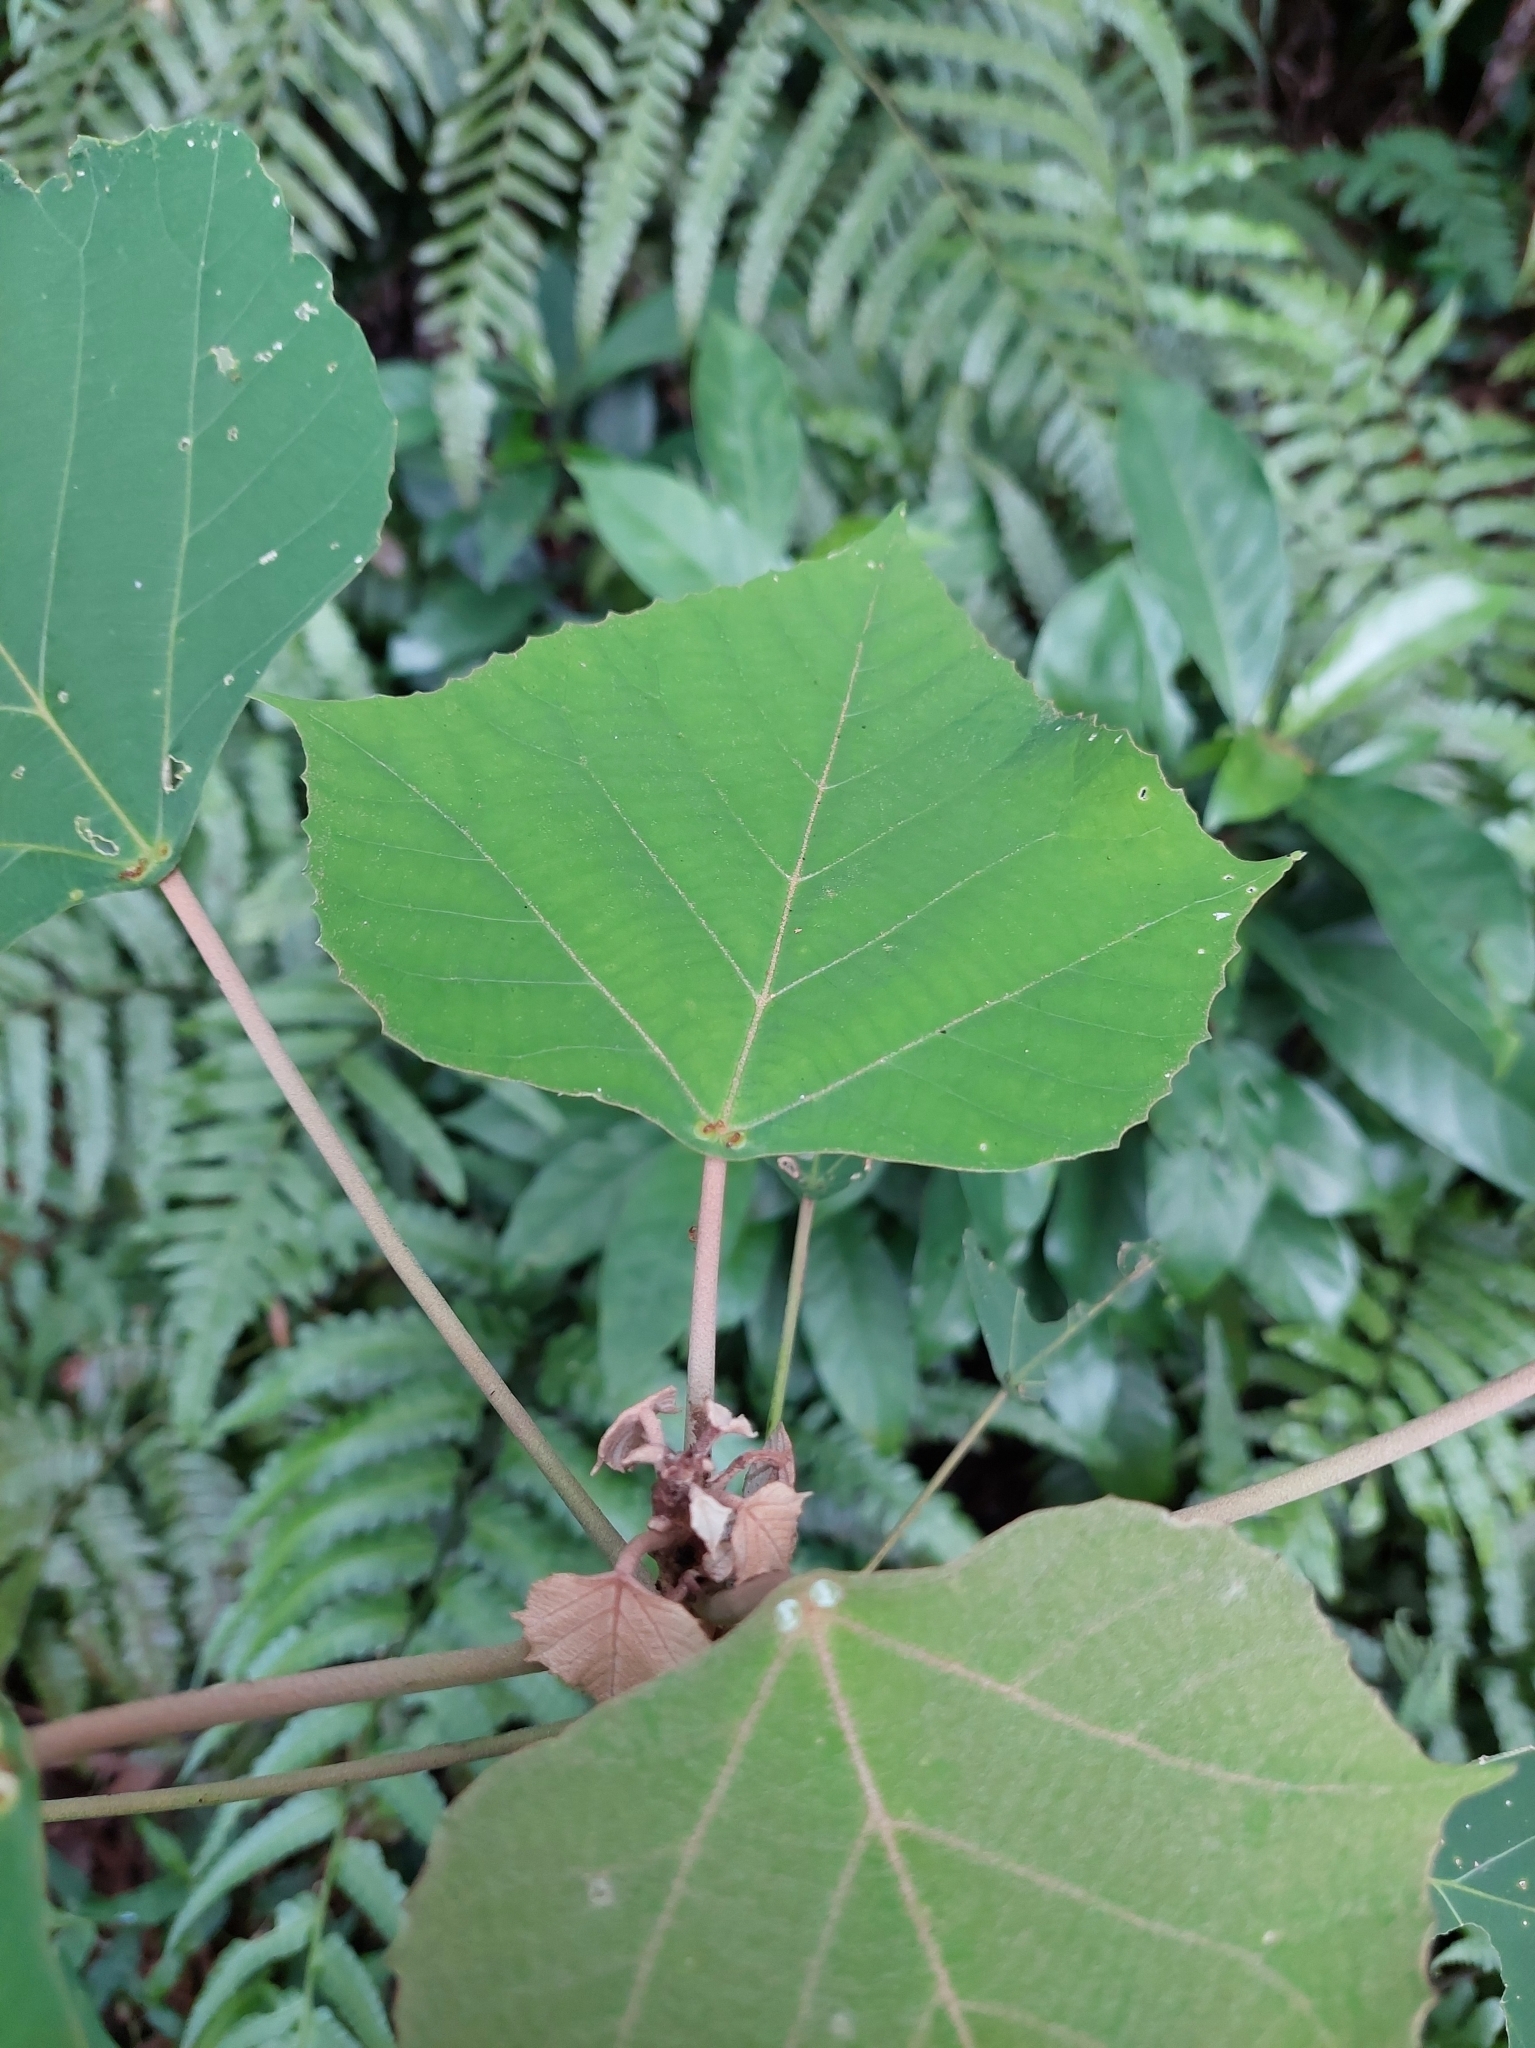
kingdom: Plantae
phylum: Tracheophyta
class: Magnoliopsida
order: Malpighiales
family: Euphorbiaceae
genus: Mallotus
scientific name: Mallotus paniculatus
